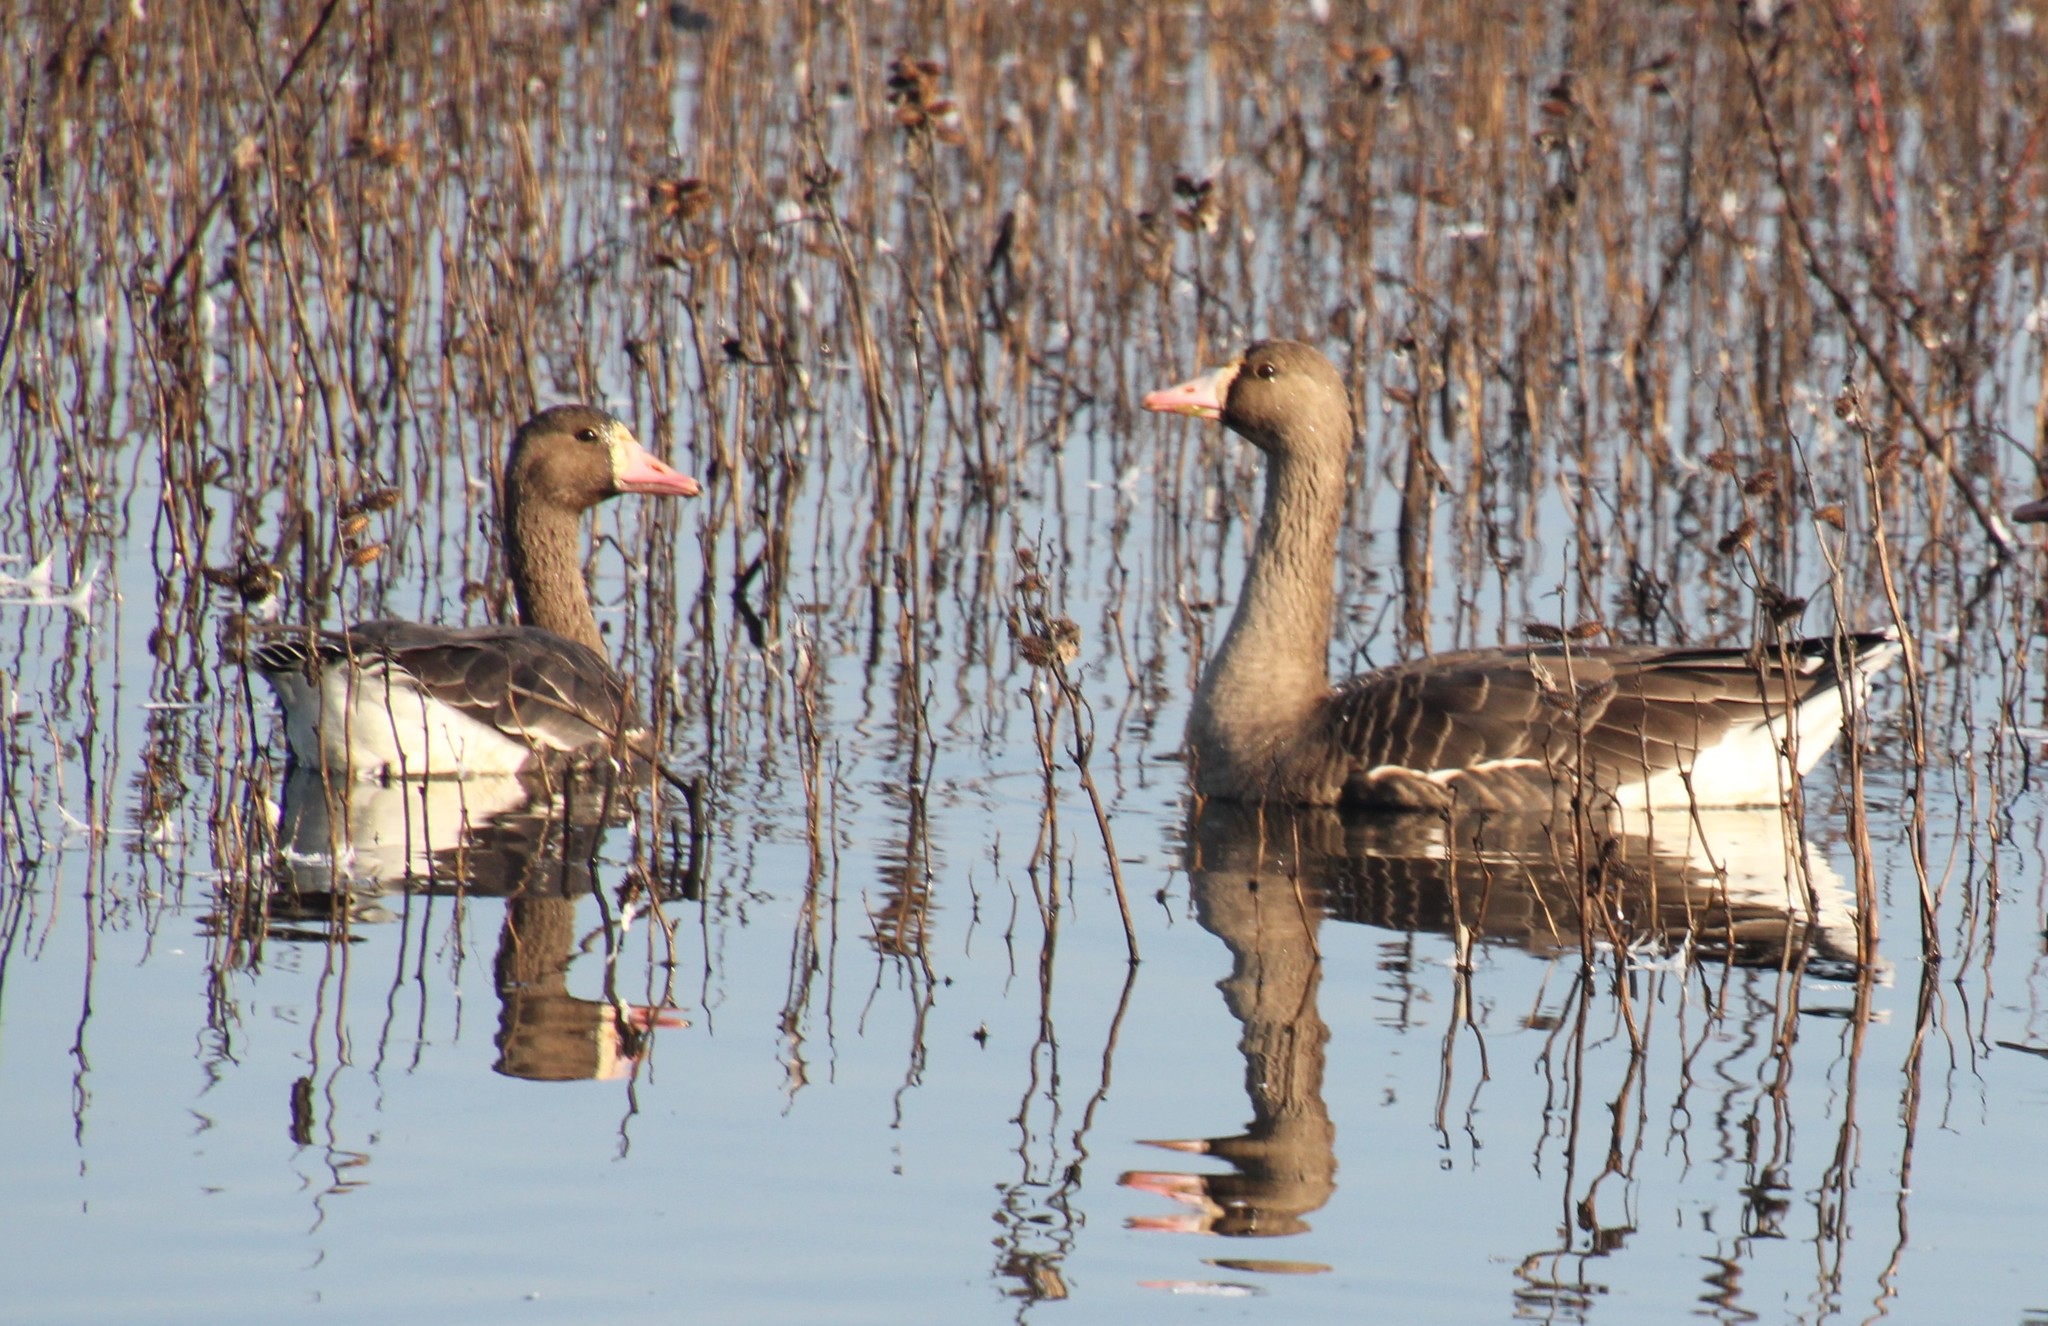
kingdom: Animalia
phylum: Chordata
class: Aves
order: Anseriformes
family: Anatidae
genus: Anser
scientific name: Anser albifrons
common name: Greater white-fronted goose
